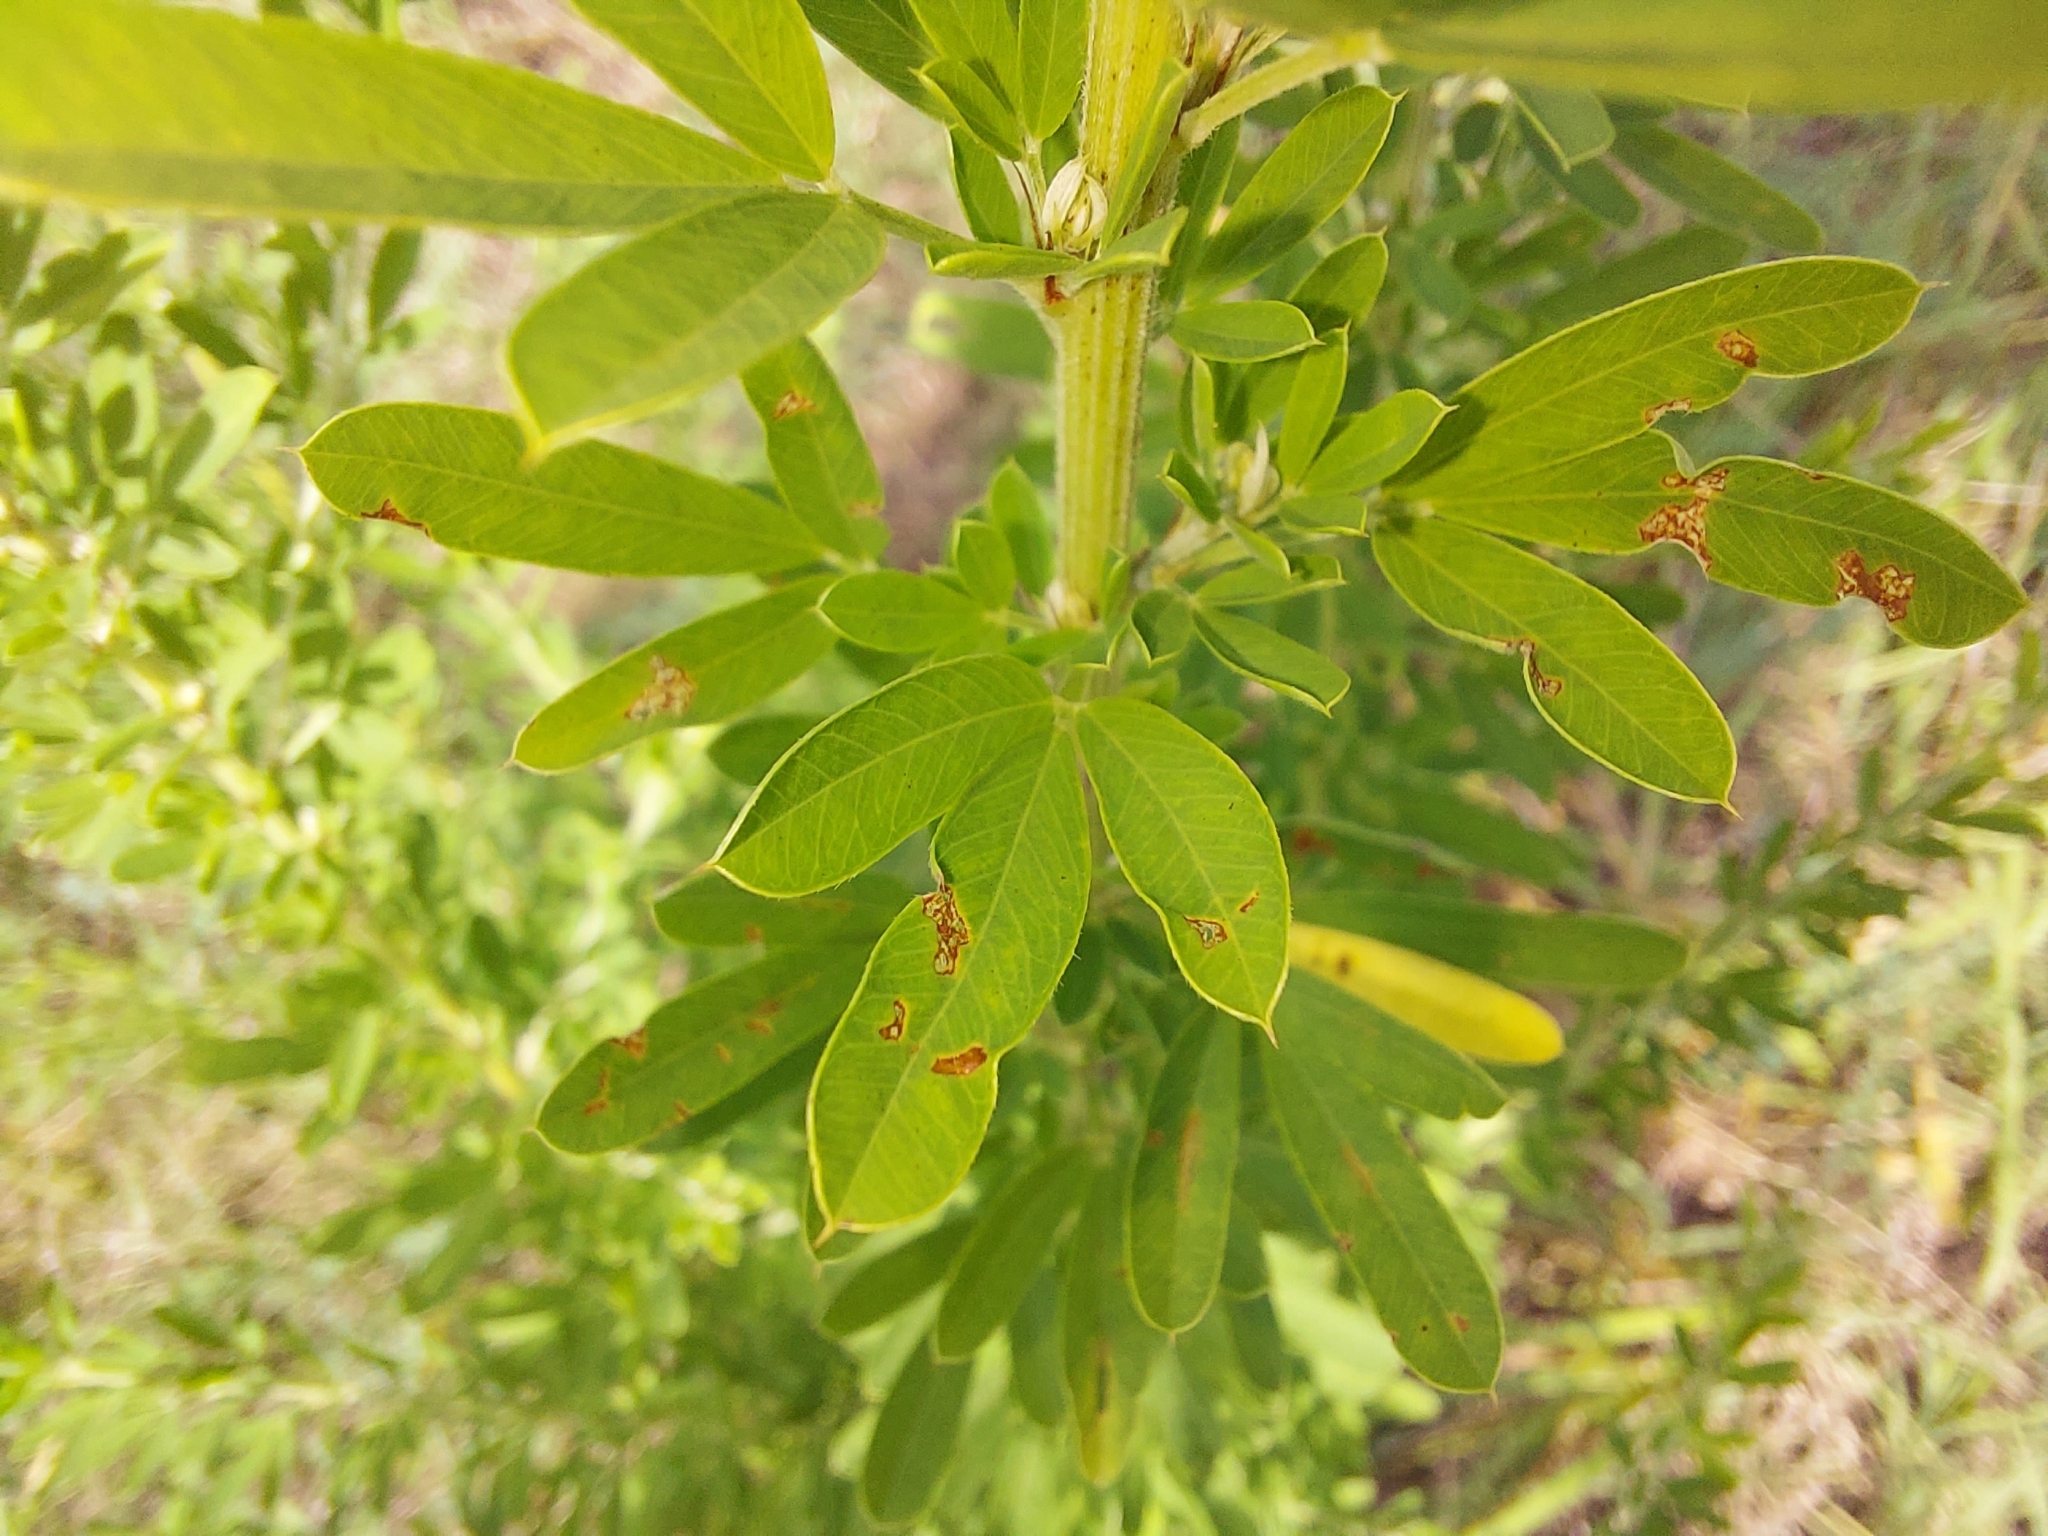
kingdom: Plantae
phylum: Tracheophyta
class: Magnoliopsida
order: Fabales
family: Fabaceae
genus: Lespedeza
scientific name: Lespedeza cuneata
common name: Chinese bush-clover
